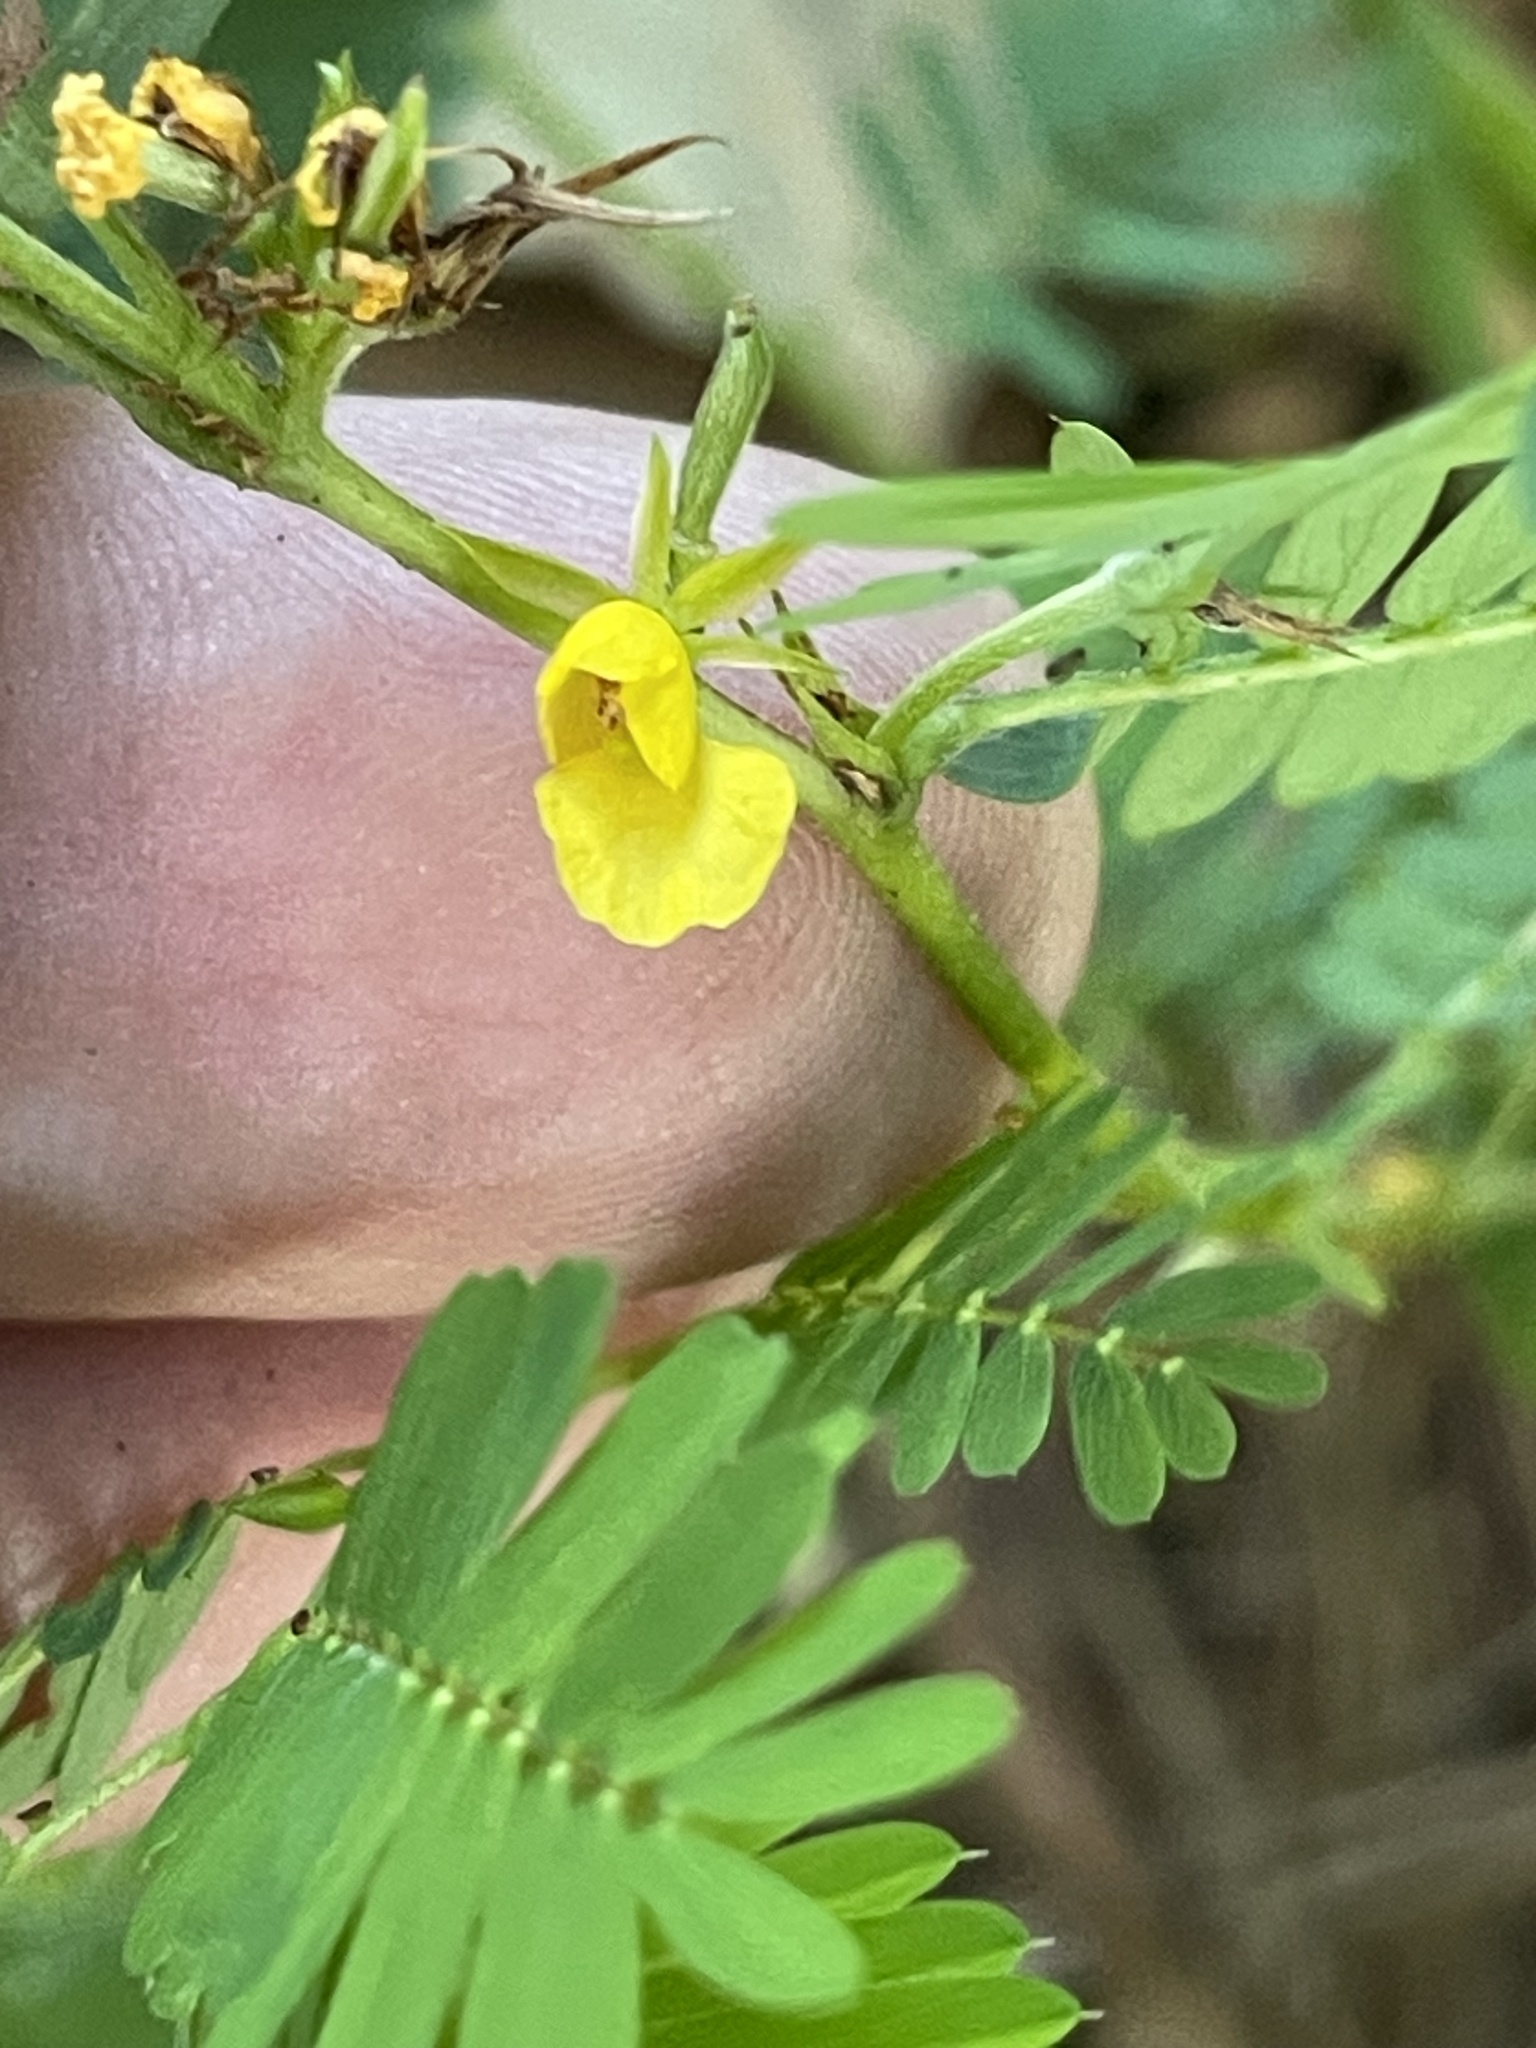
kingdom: Plantae
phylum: Tracheophyta
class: Magnoliopsida
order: Fabales
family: Fabaceae
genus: Chamaecrista
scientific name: Chamaecrista nictitans
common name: Sensitive cassia
